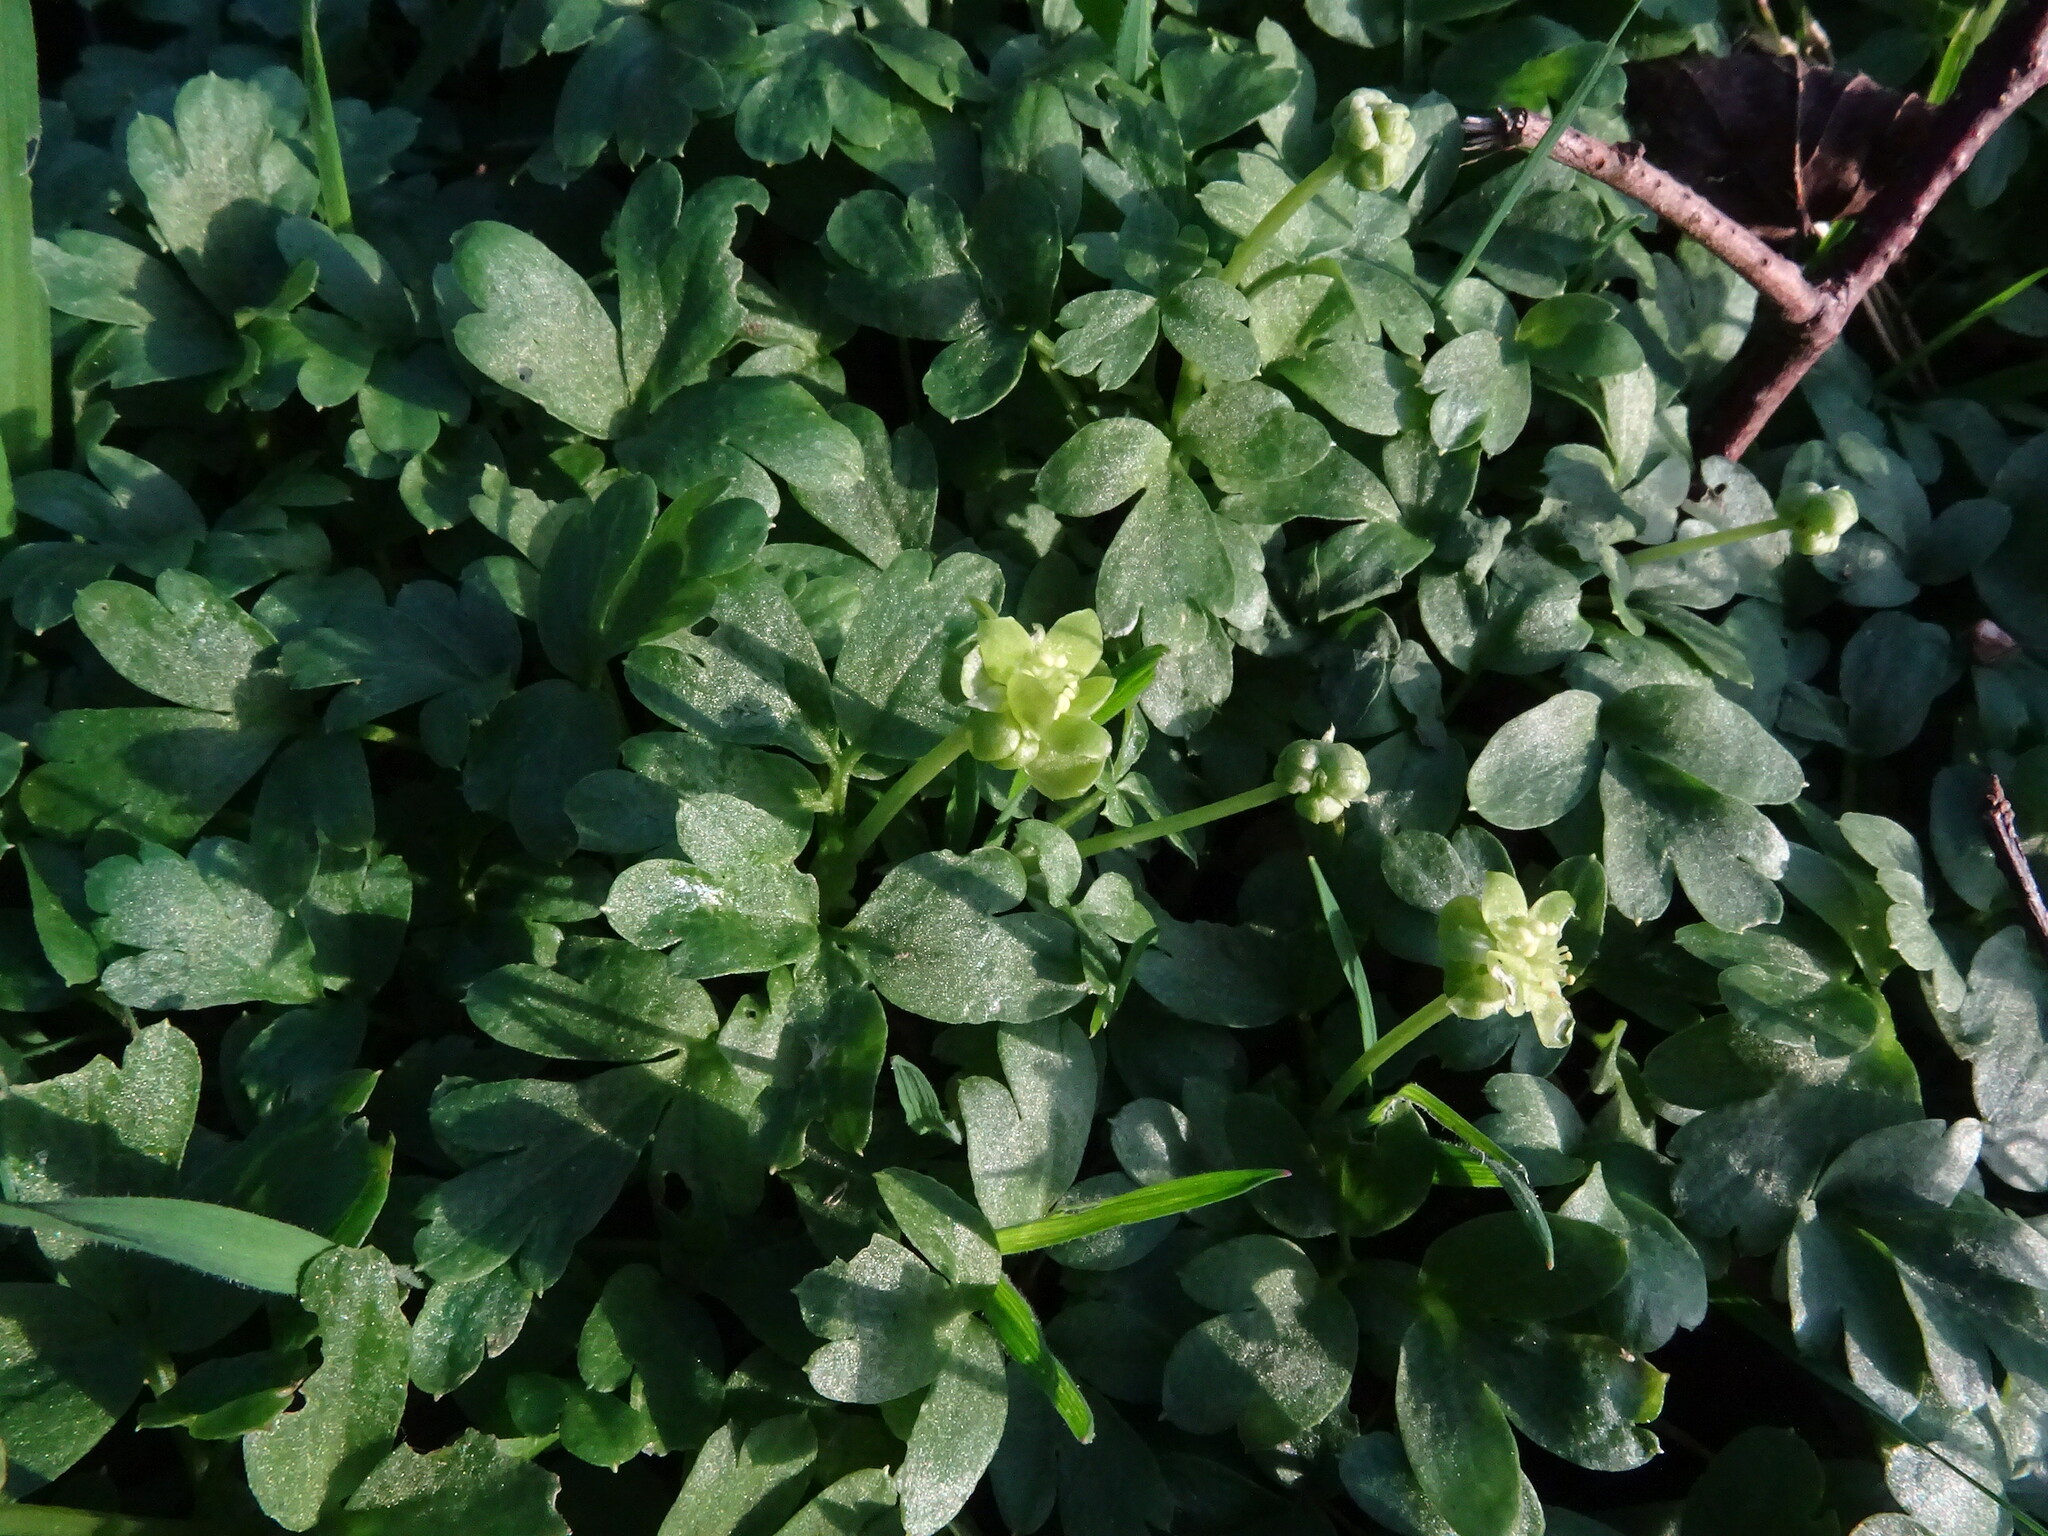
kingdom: Plantae
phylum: Tracheophyta
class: Magnoliopsida
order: Dipsacales
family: Viburnaceae
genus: Adoxa
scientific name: Adoxa moschatellina
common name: Moschatel
